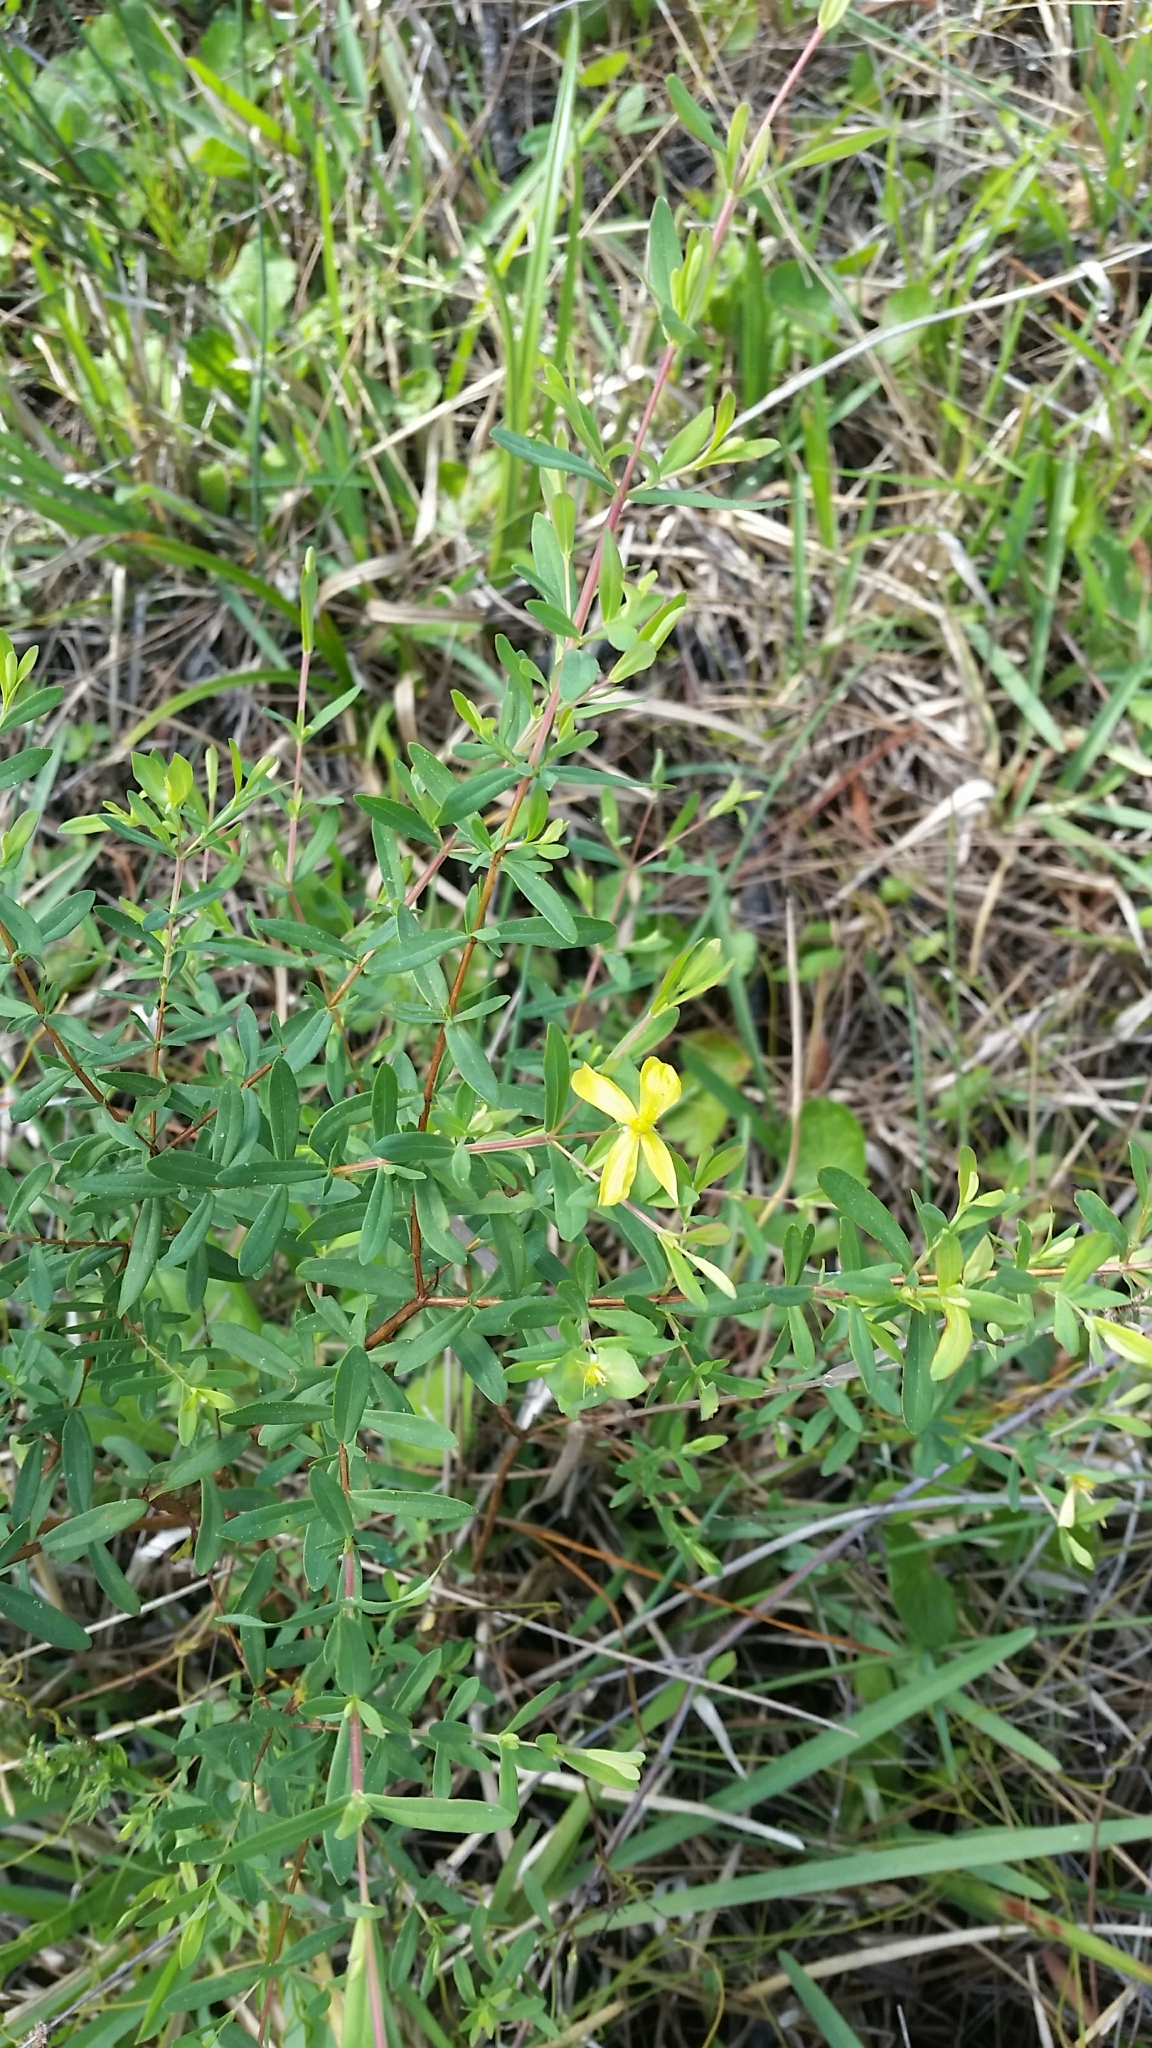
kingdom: Plantae
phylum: Tracheophyta
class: Magnoliopsida
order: Malpighiales
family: Hypericaceae
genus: Hypericum
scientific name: Hypericum hypericoides
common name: St. andrew's cross
